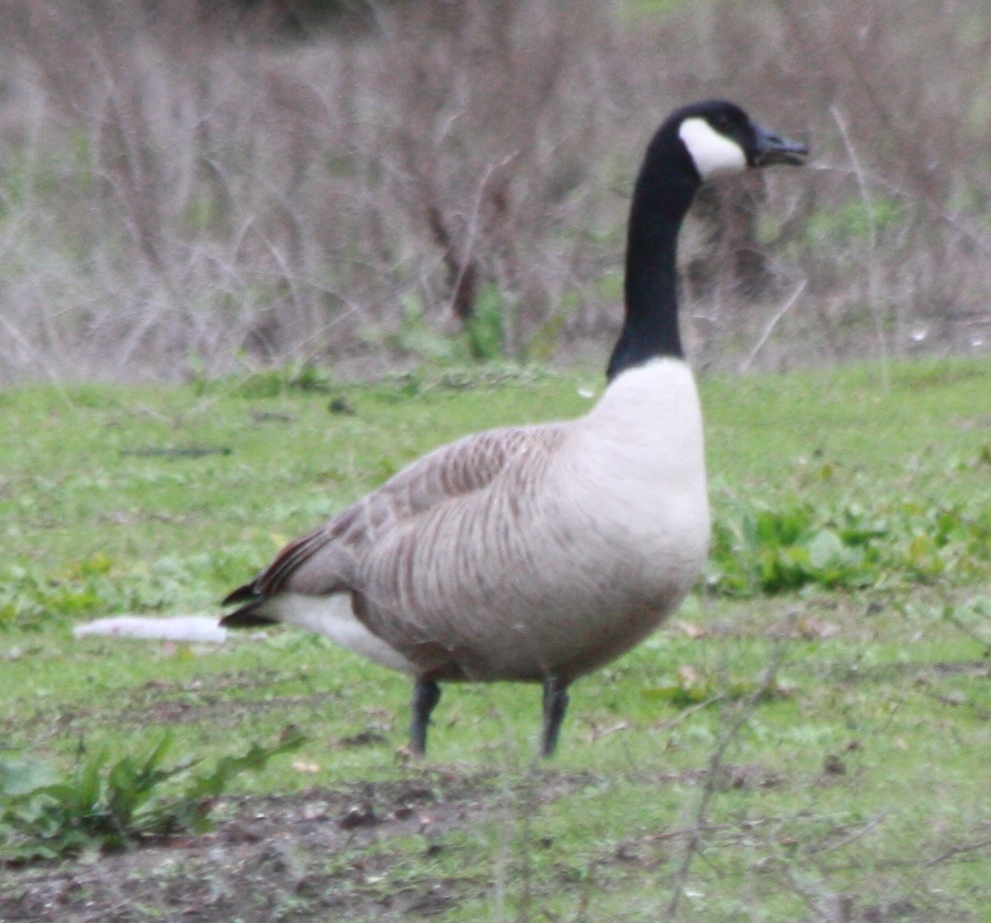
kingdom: Animalia
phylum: Chordata
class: Aves
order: Anseriformes
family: Anatidae
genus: Branta
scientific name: Branta canadensis
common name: Canada goose
